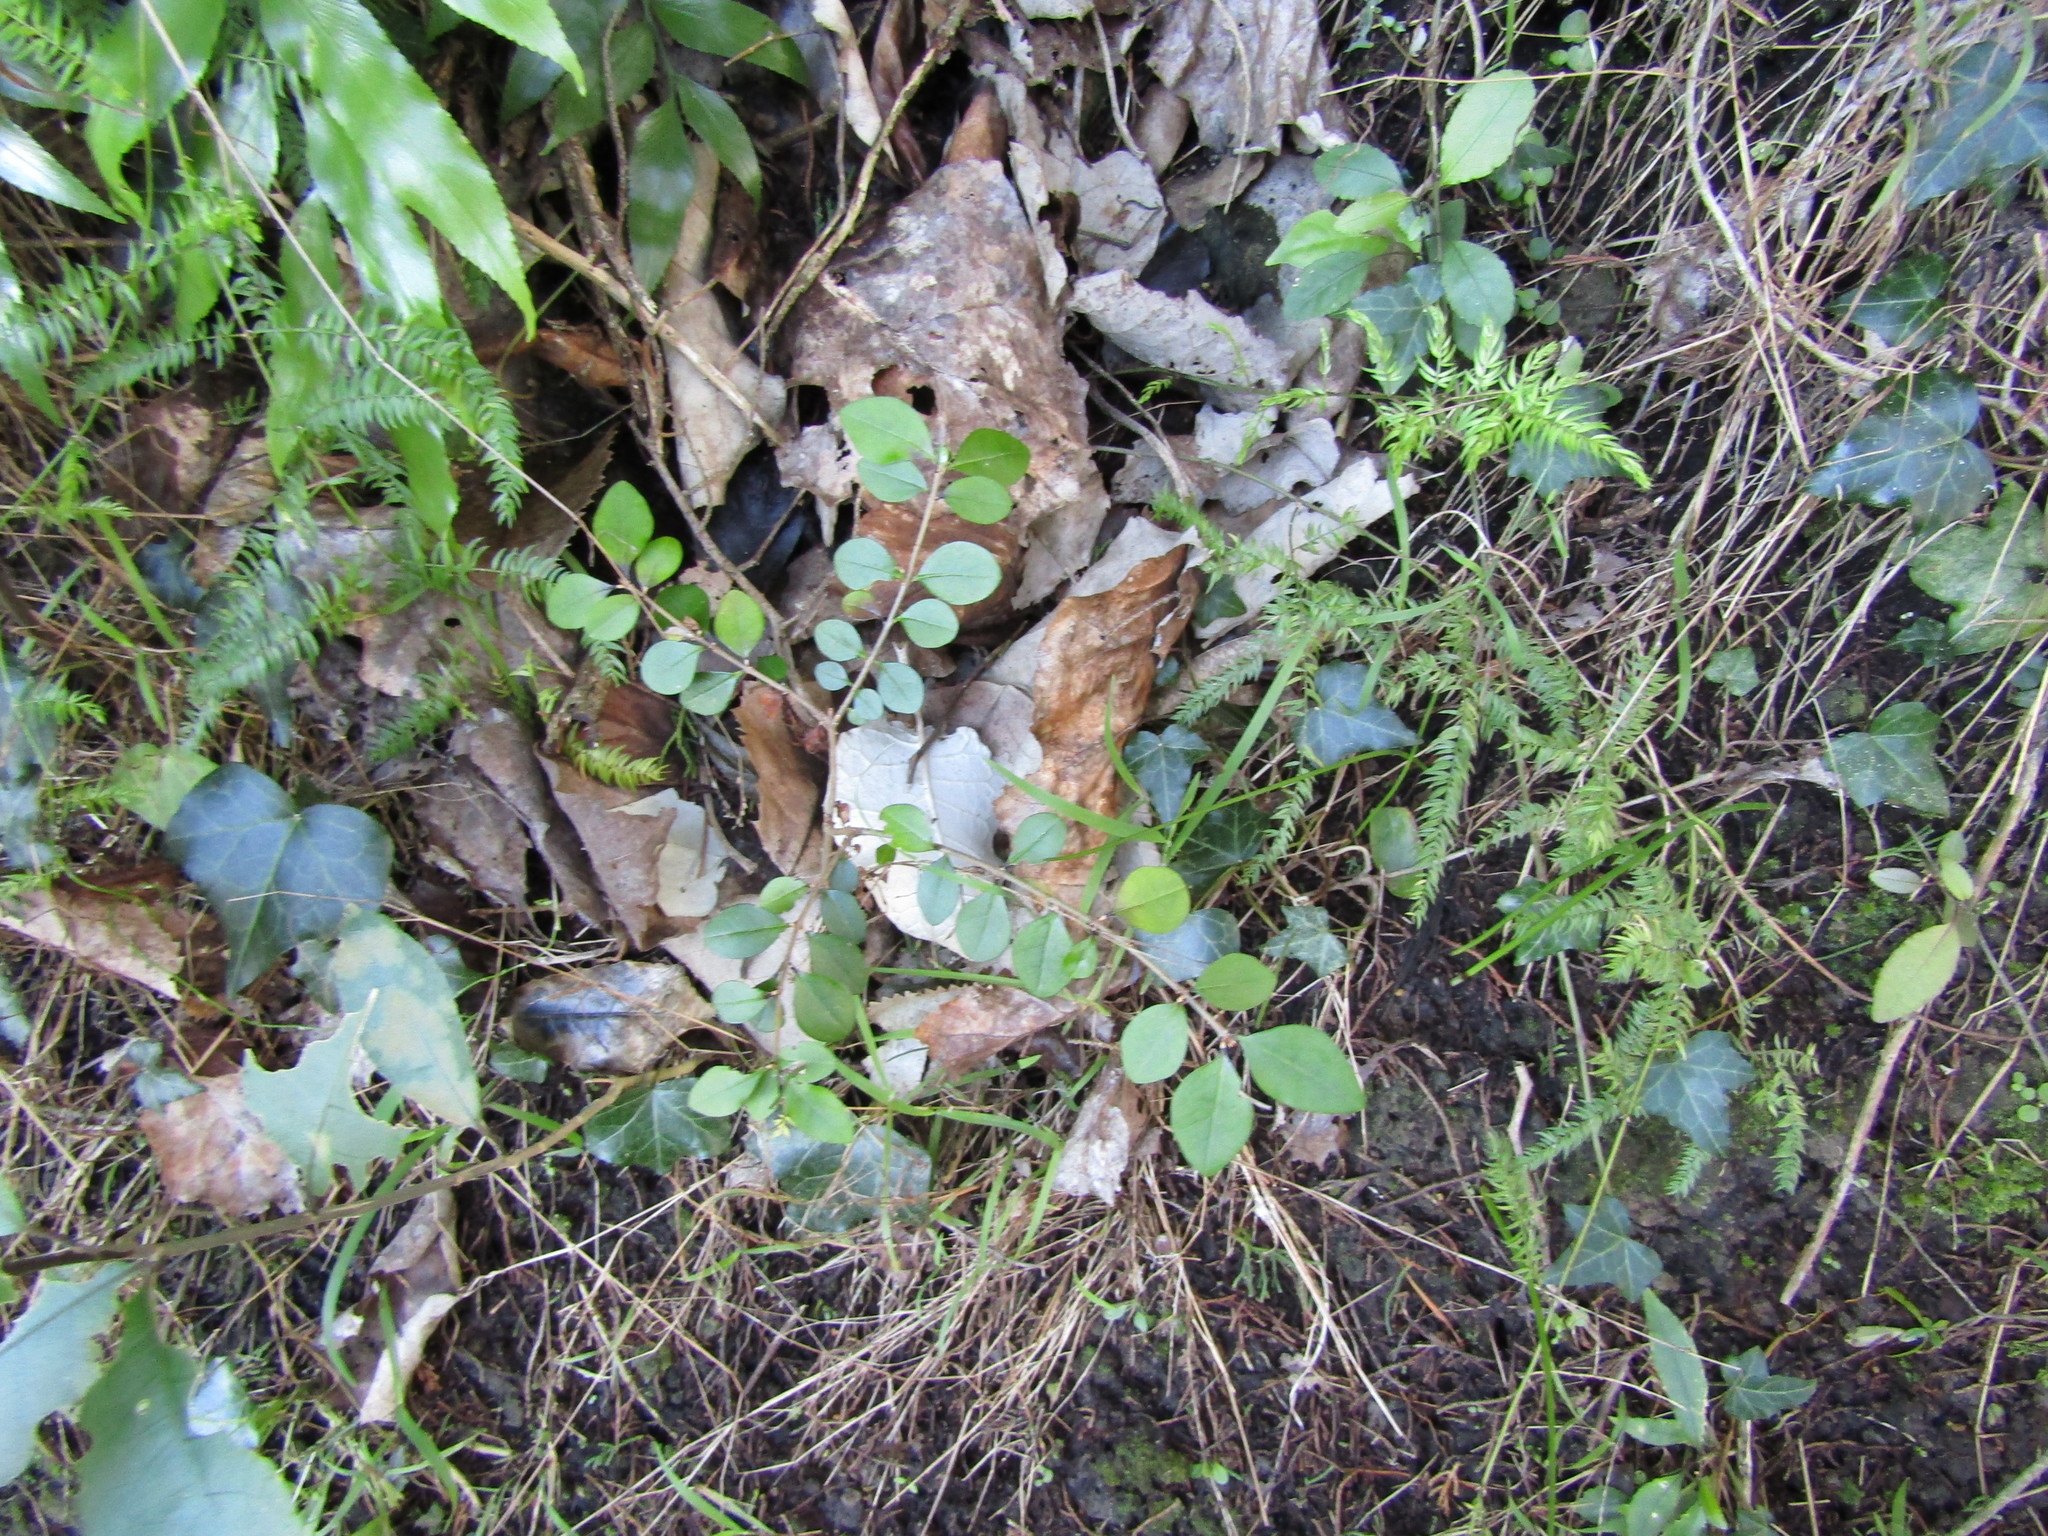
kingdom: Plantae
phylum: Tracheophyta
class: Magnoliopsida
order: Lamiales
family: Oleaceae
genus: Ligustrum
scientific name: Ligustrum sinense
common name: Chinese privet
